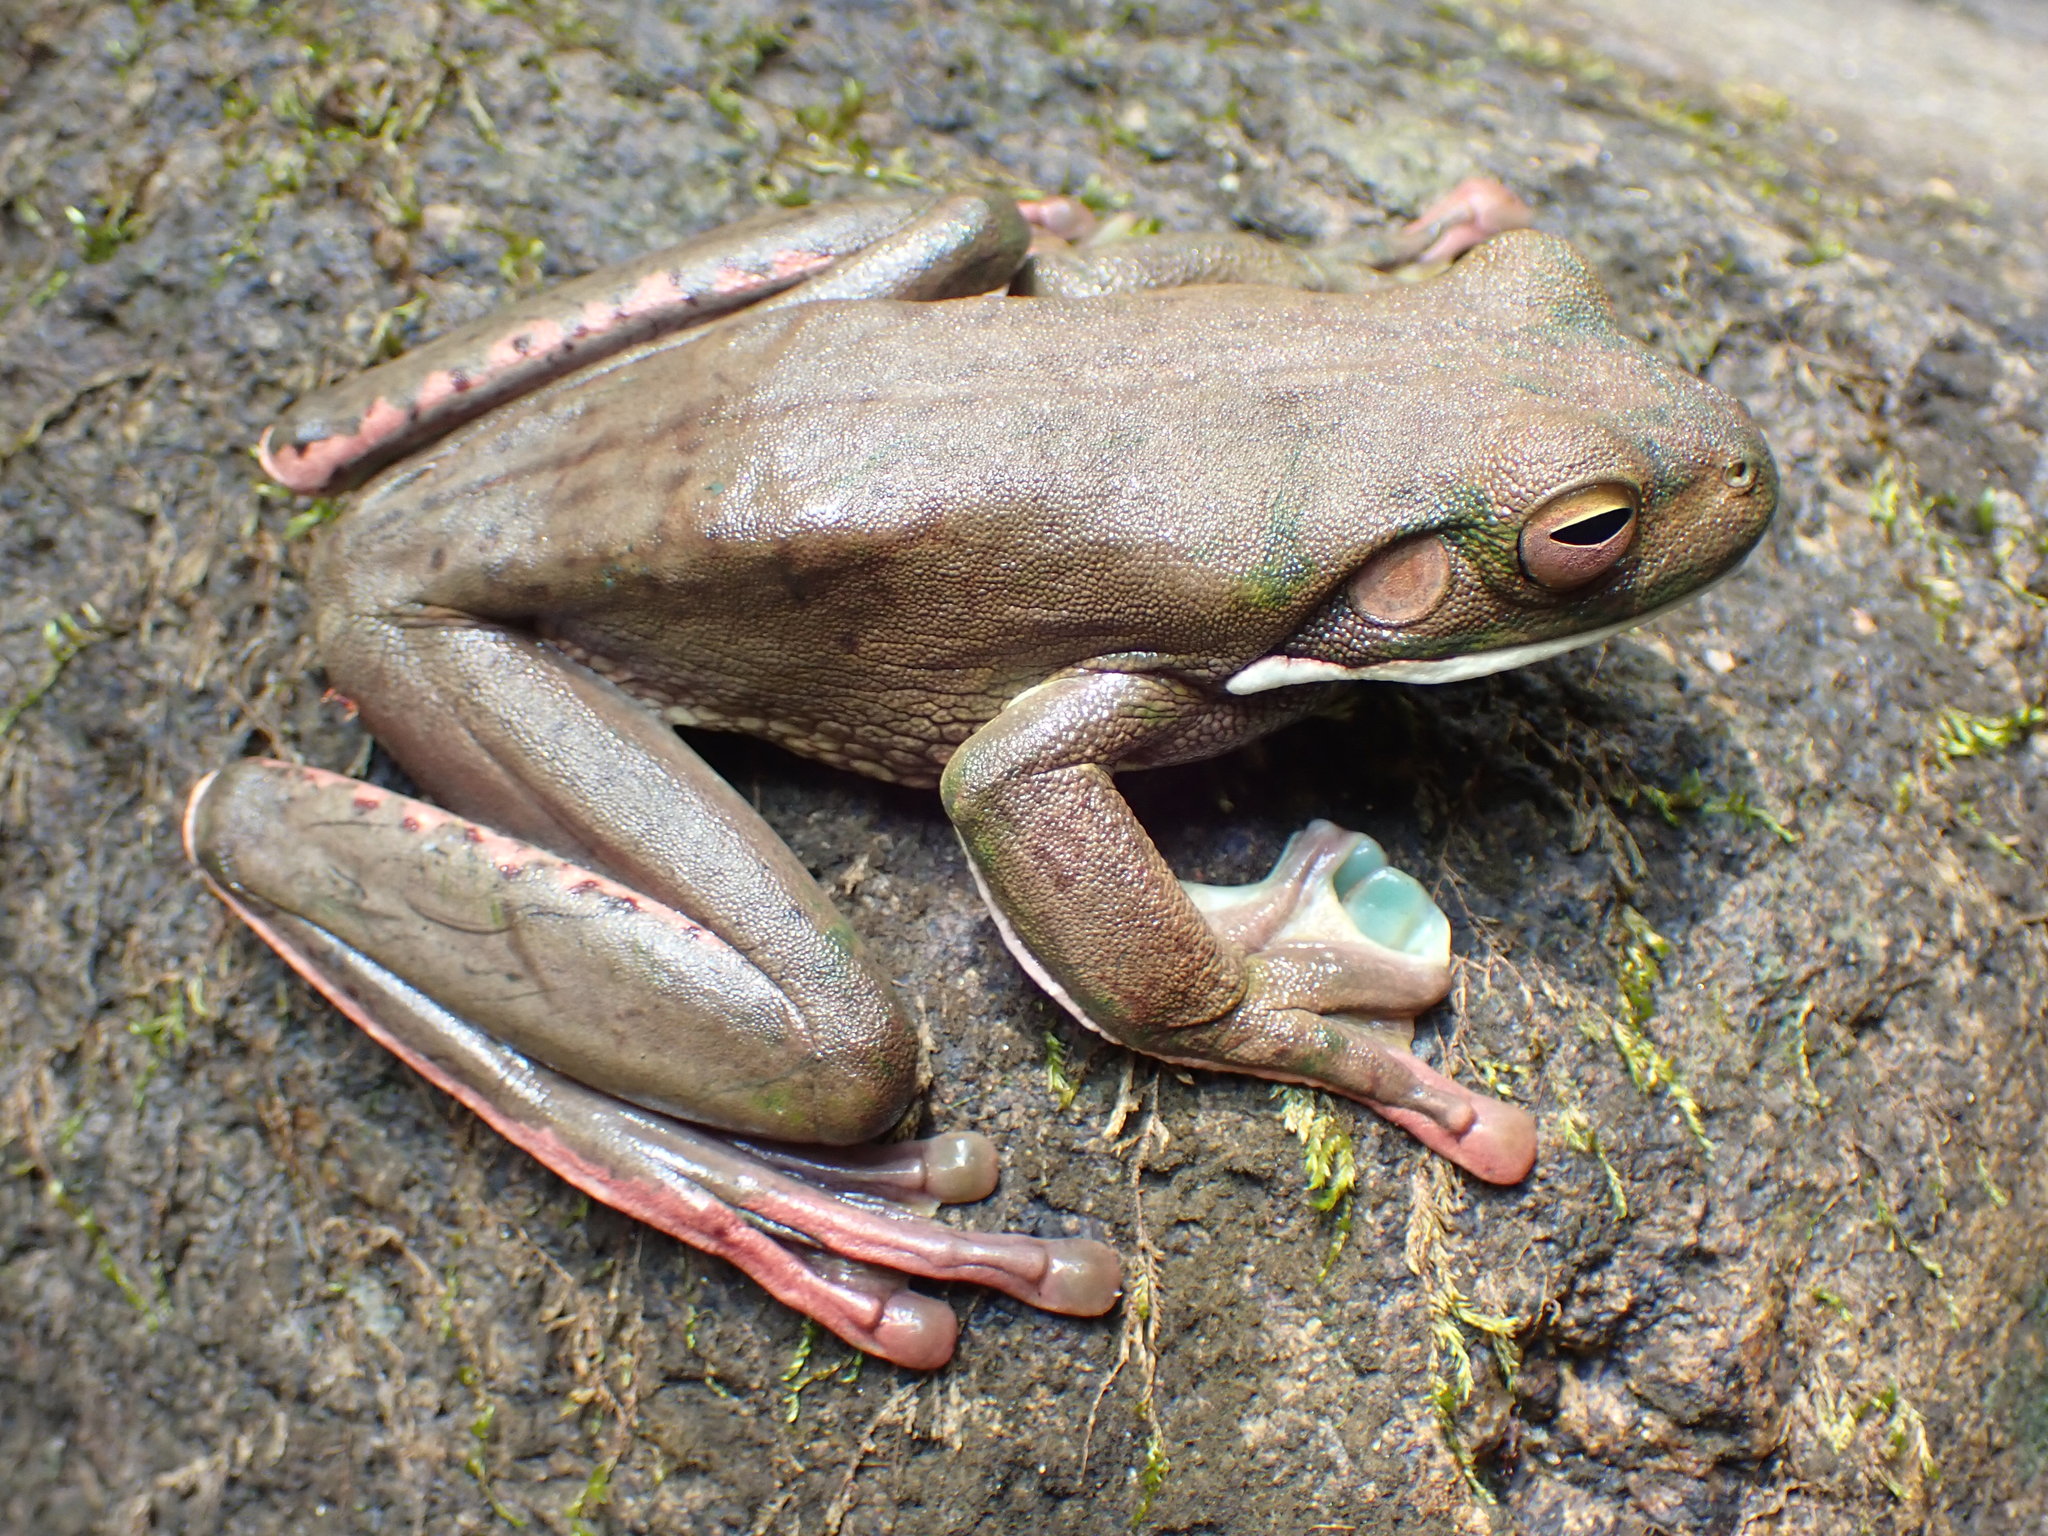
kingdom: Animalia
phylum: Chordata
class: Amphibia
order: Anura
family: Pelodryadidae
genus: Nyctimystes
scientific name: Nyctimystes infrafrenatus
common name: Australian giant treefrog
